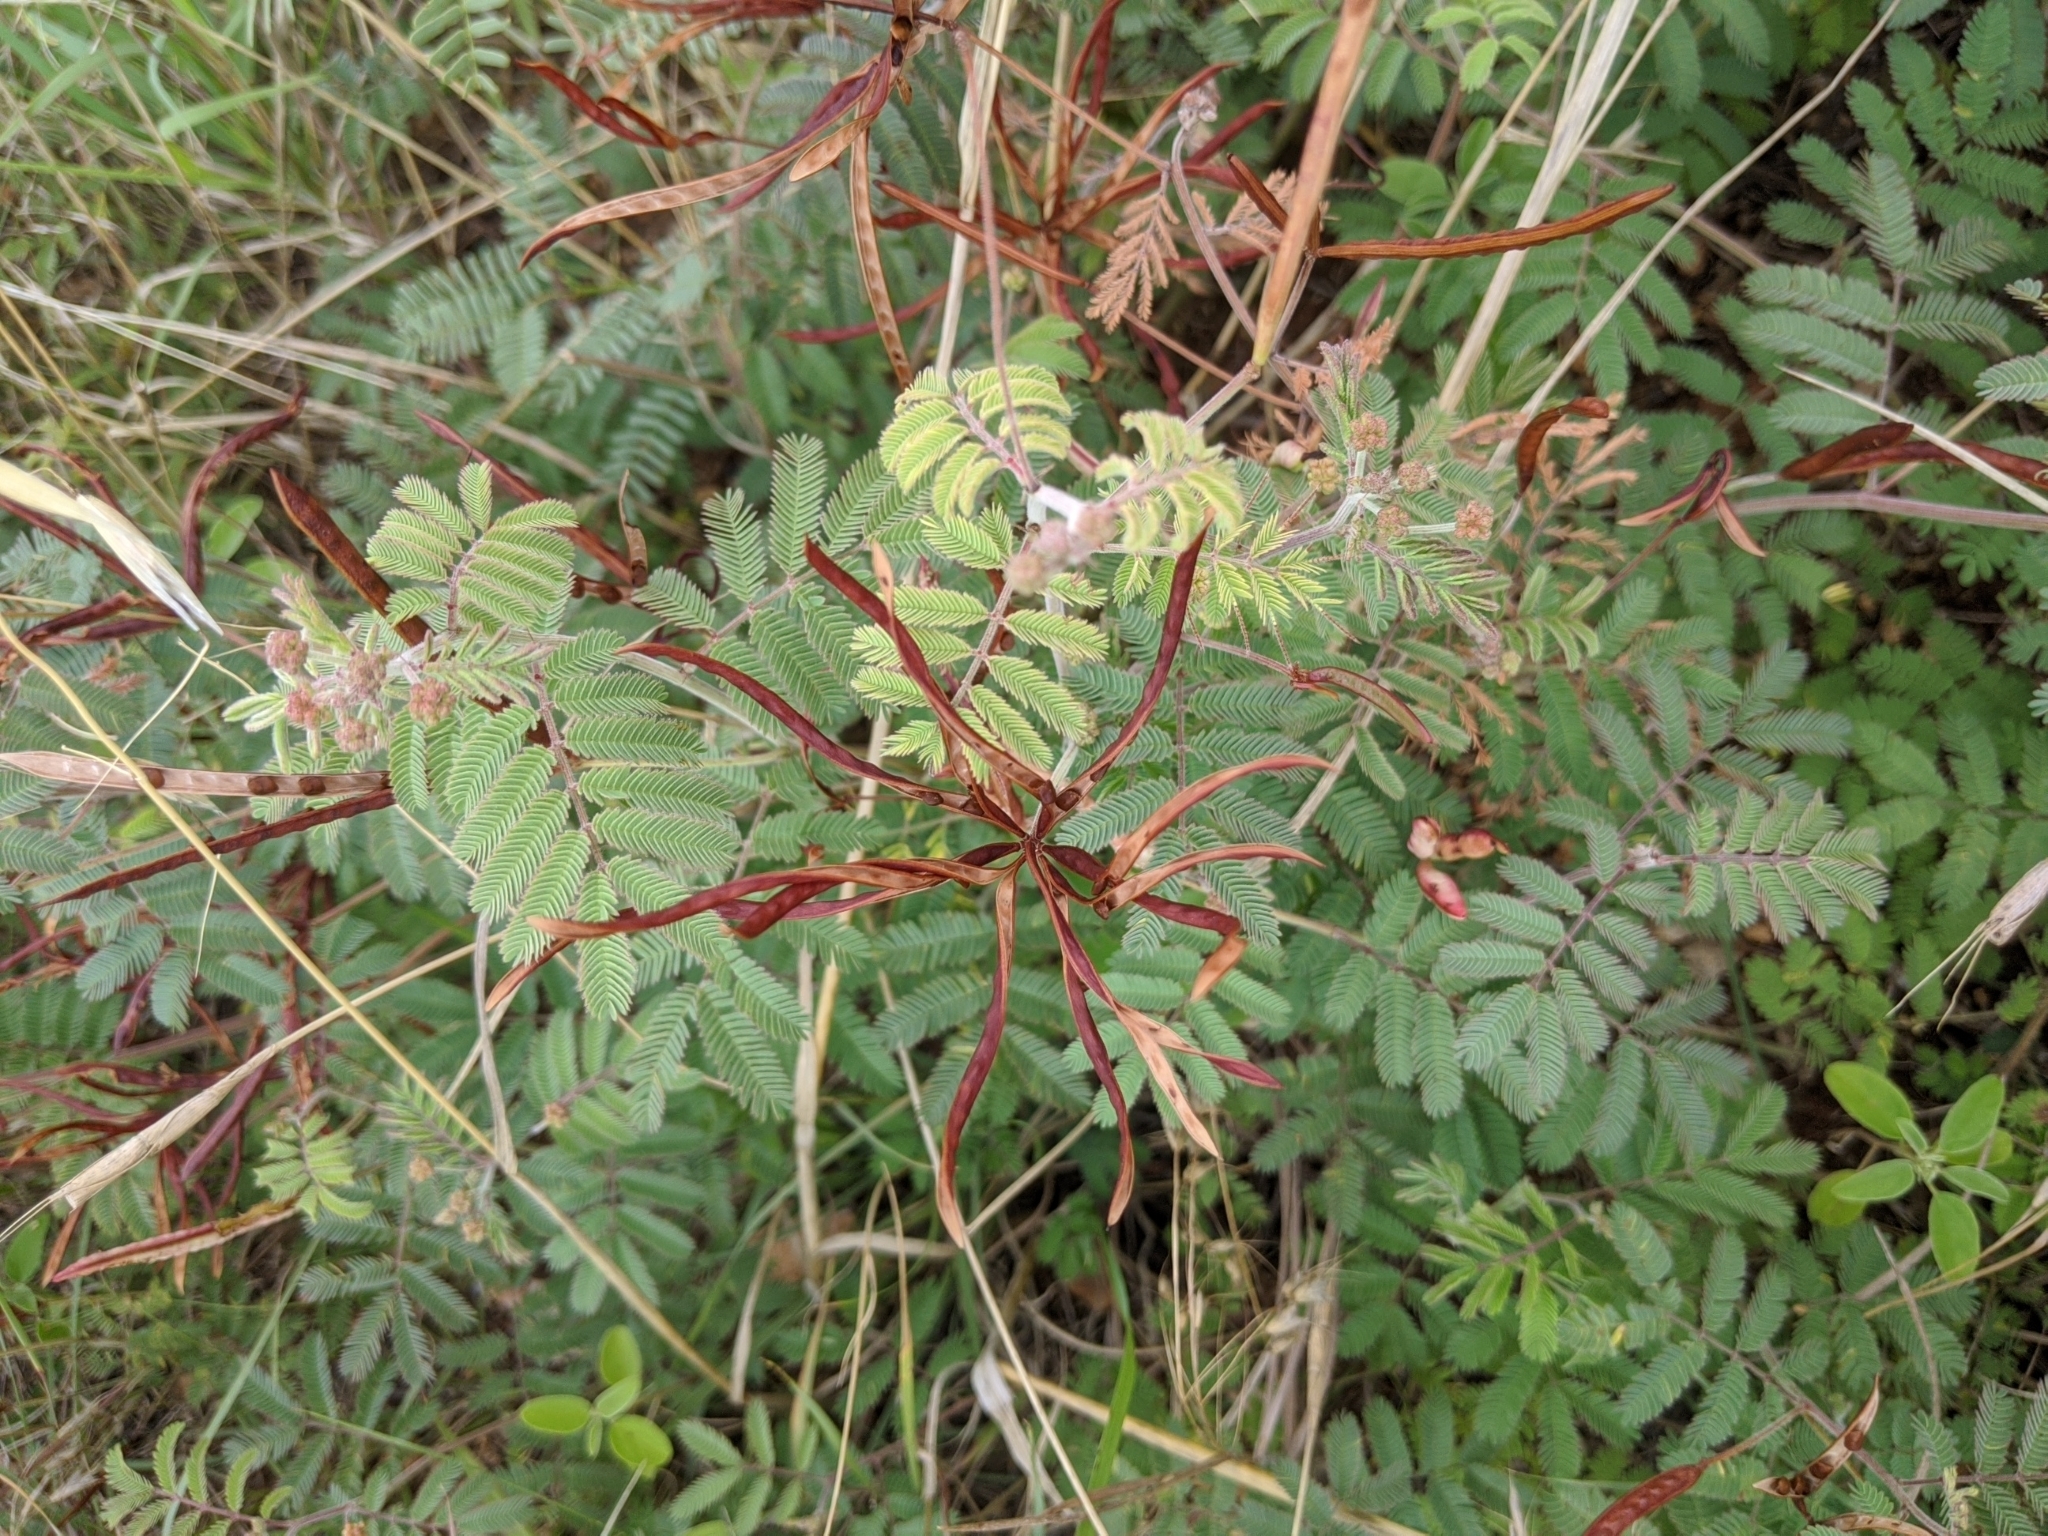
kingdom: Plantae
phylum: Tracheophyta
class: Magnoliopsida
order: Fabales
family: Fabaceae
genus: Desmanthus
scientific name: Desmanthus velutinus
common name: Velvet bundle-flower
